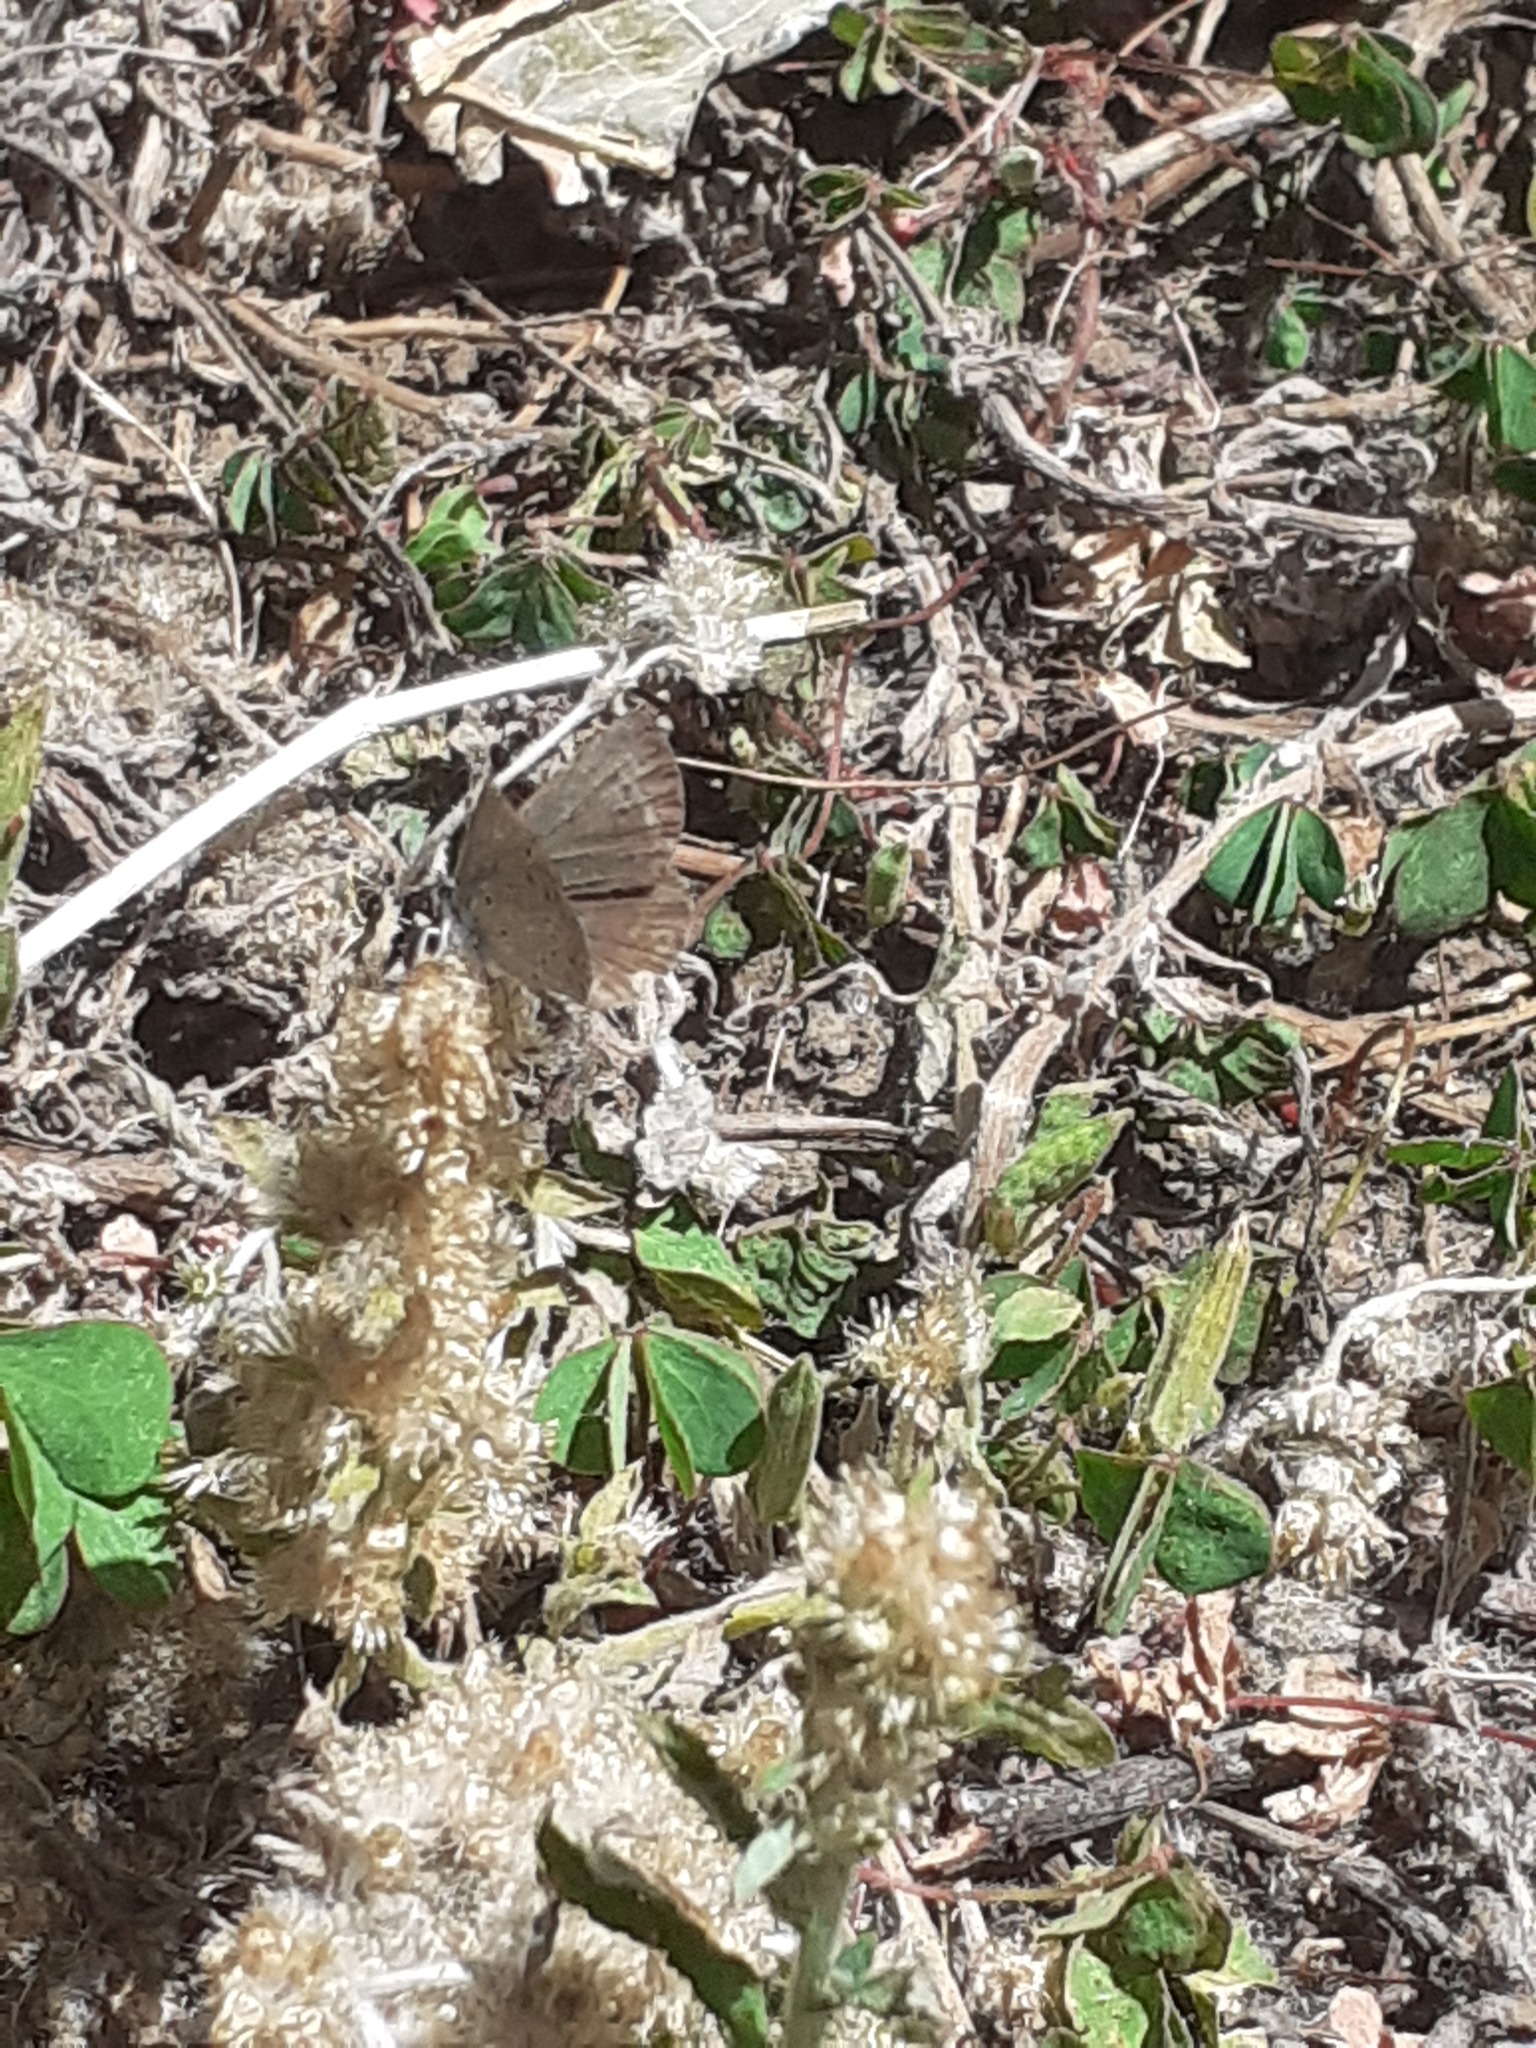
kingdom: Animalia
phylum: Arthropoda
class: Insecta
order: Lepidoptera
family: Lycaenidae
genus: Zizeeria
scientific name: Zizeeria knysna
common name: African grass blue
